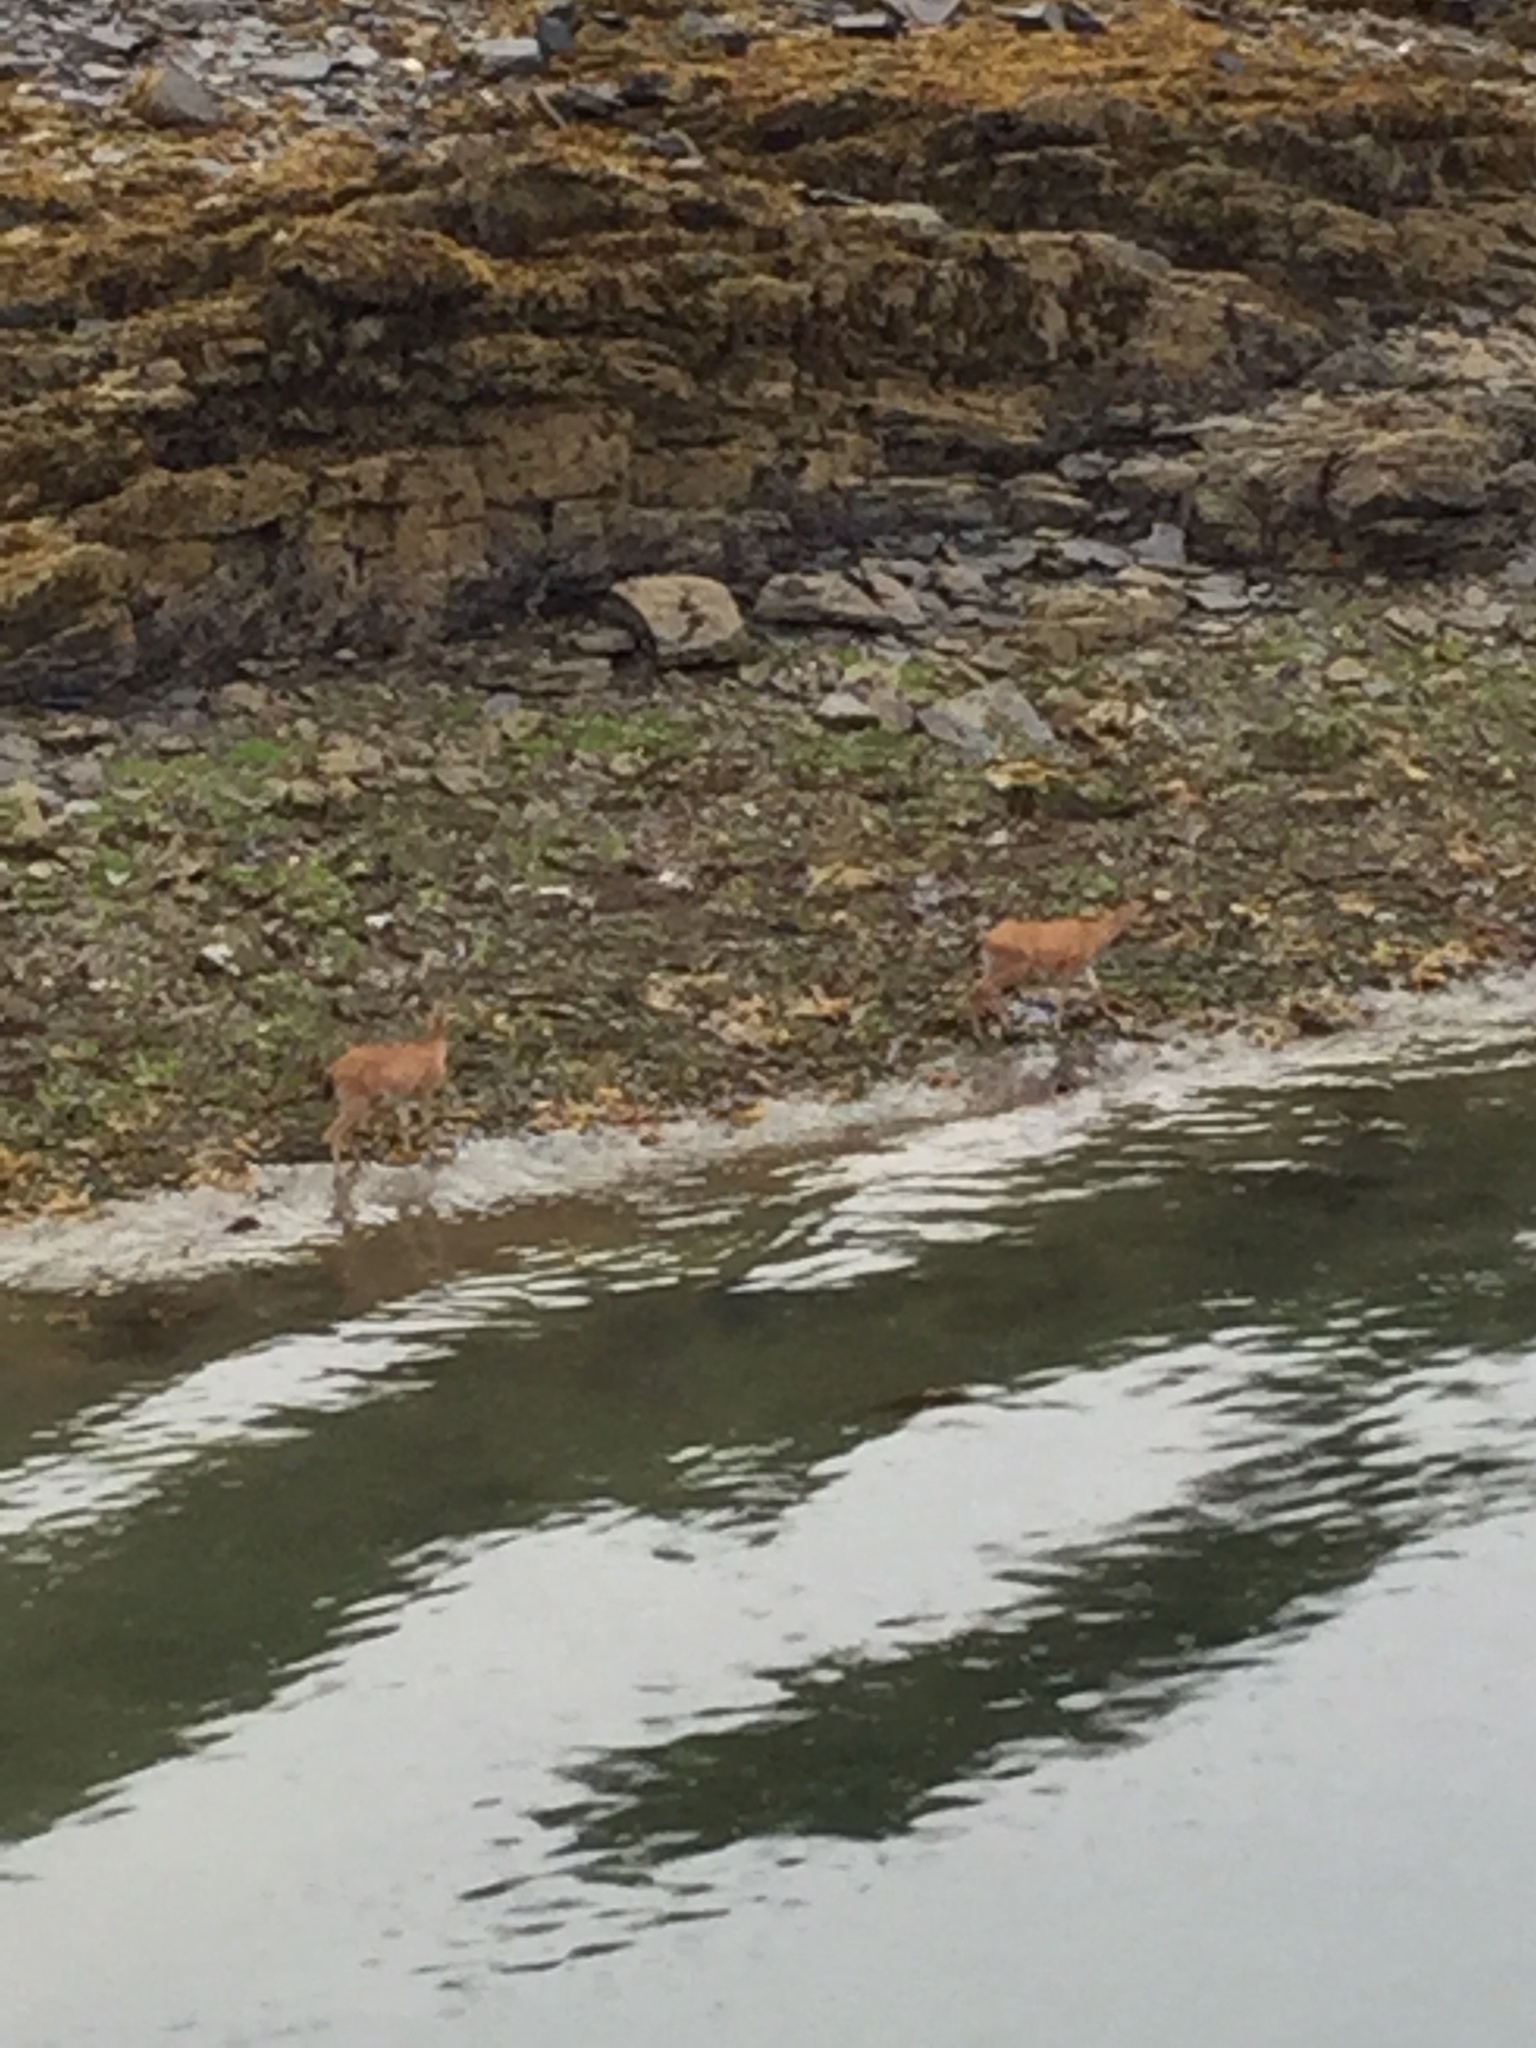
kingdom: Animalia
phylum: Chordata
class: Mammalia
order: Artiodactyla
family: Cervidae
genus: Odocoileus
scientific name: Odocoileus hemionus
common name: Mule deer
